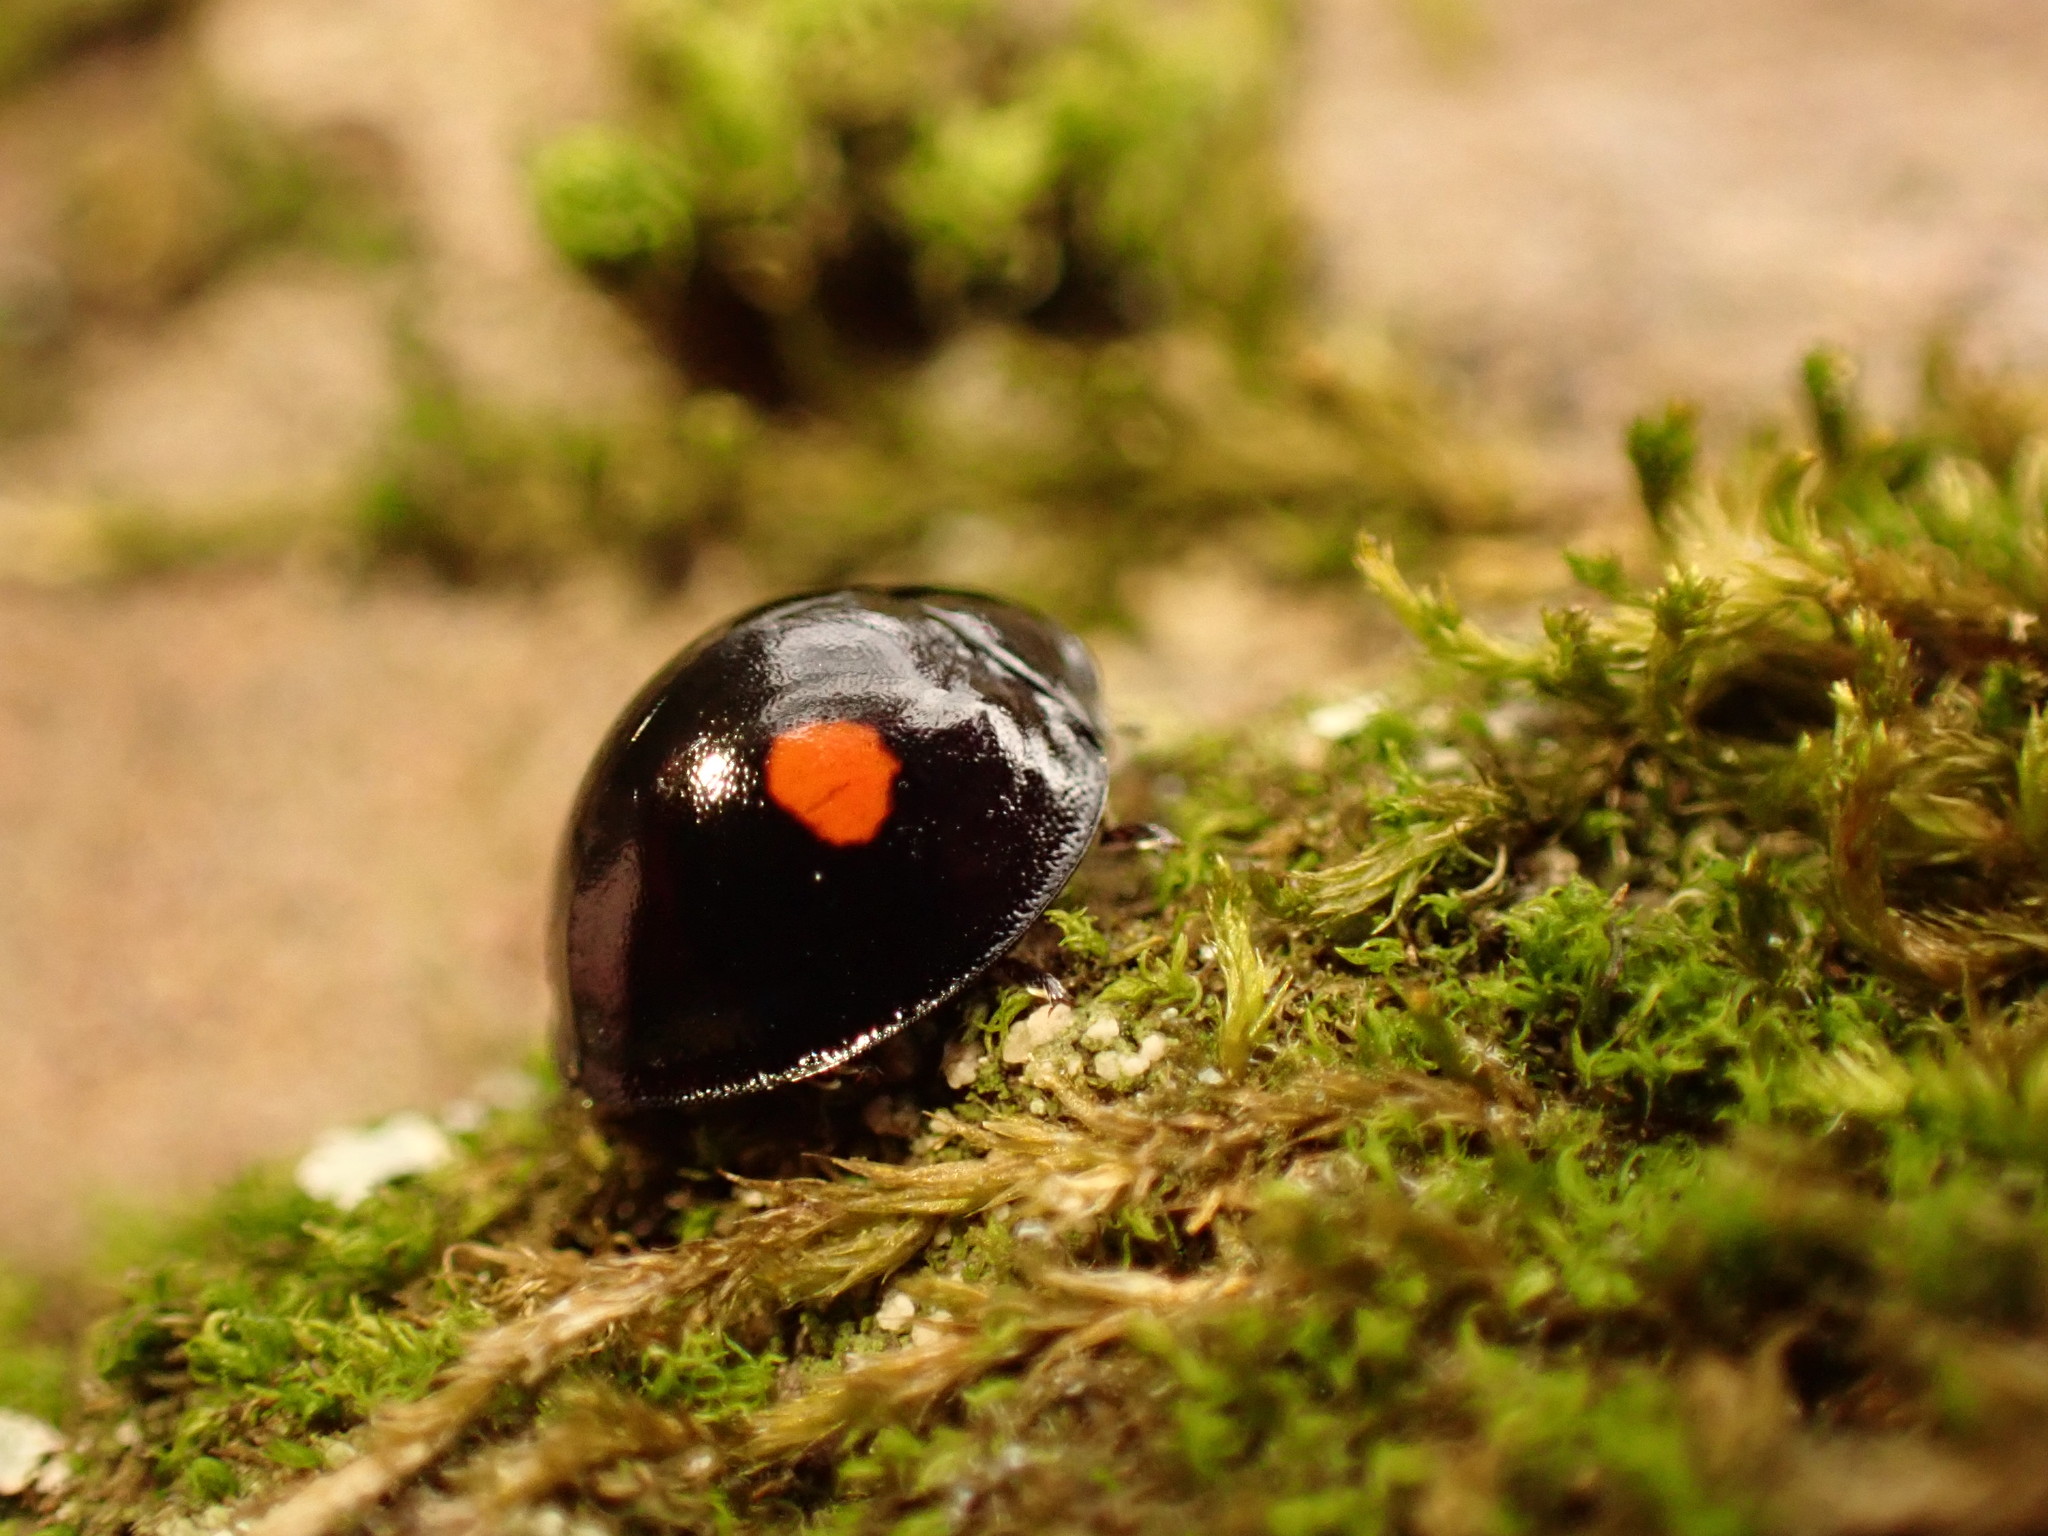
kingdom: Animalia
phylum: Arthropoda
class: Insecta
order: Coleoptera
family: Coccinellidae
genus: Chilocorus
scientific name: Chilocorus stigma
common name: Twicestabbed lady beetle
